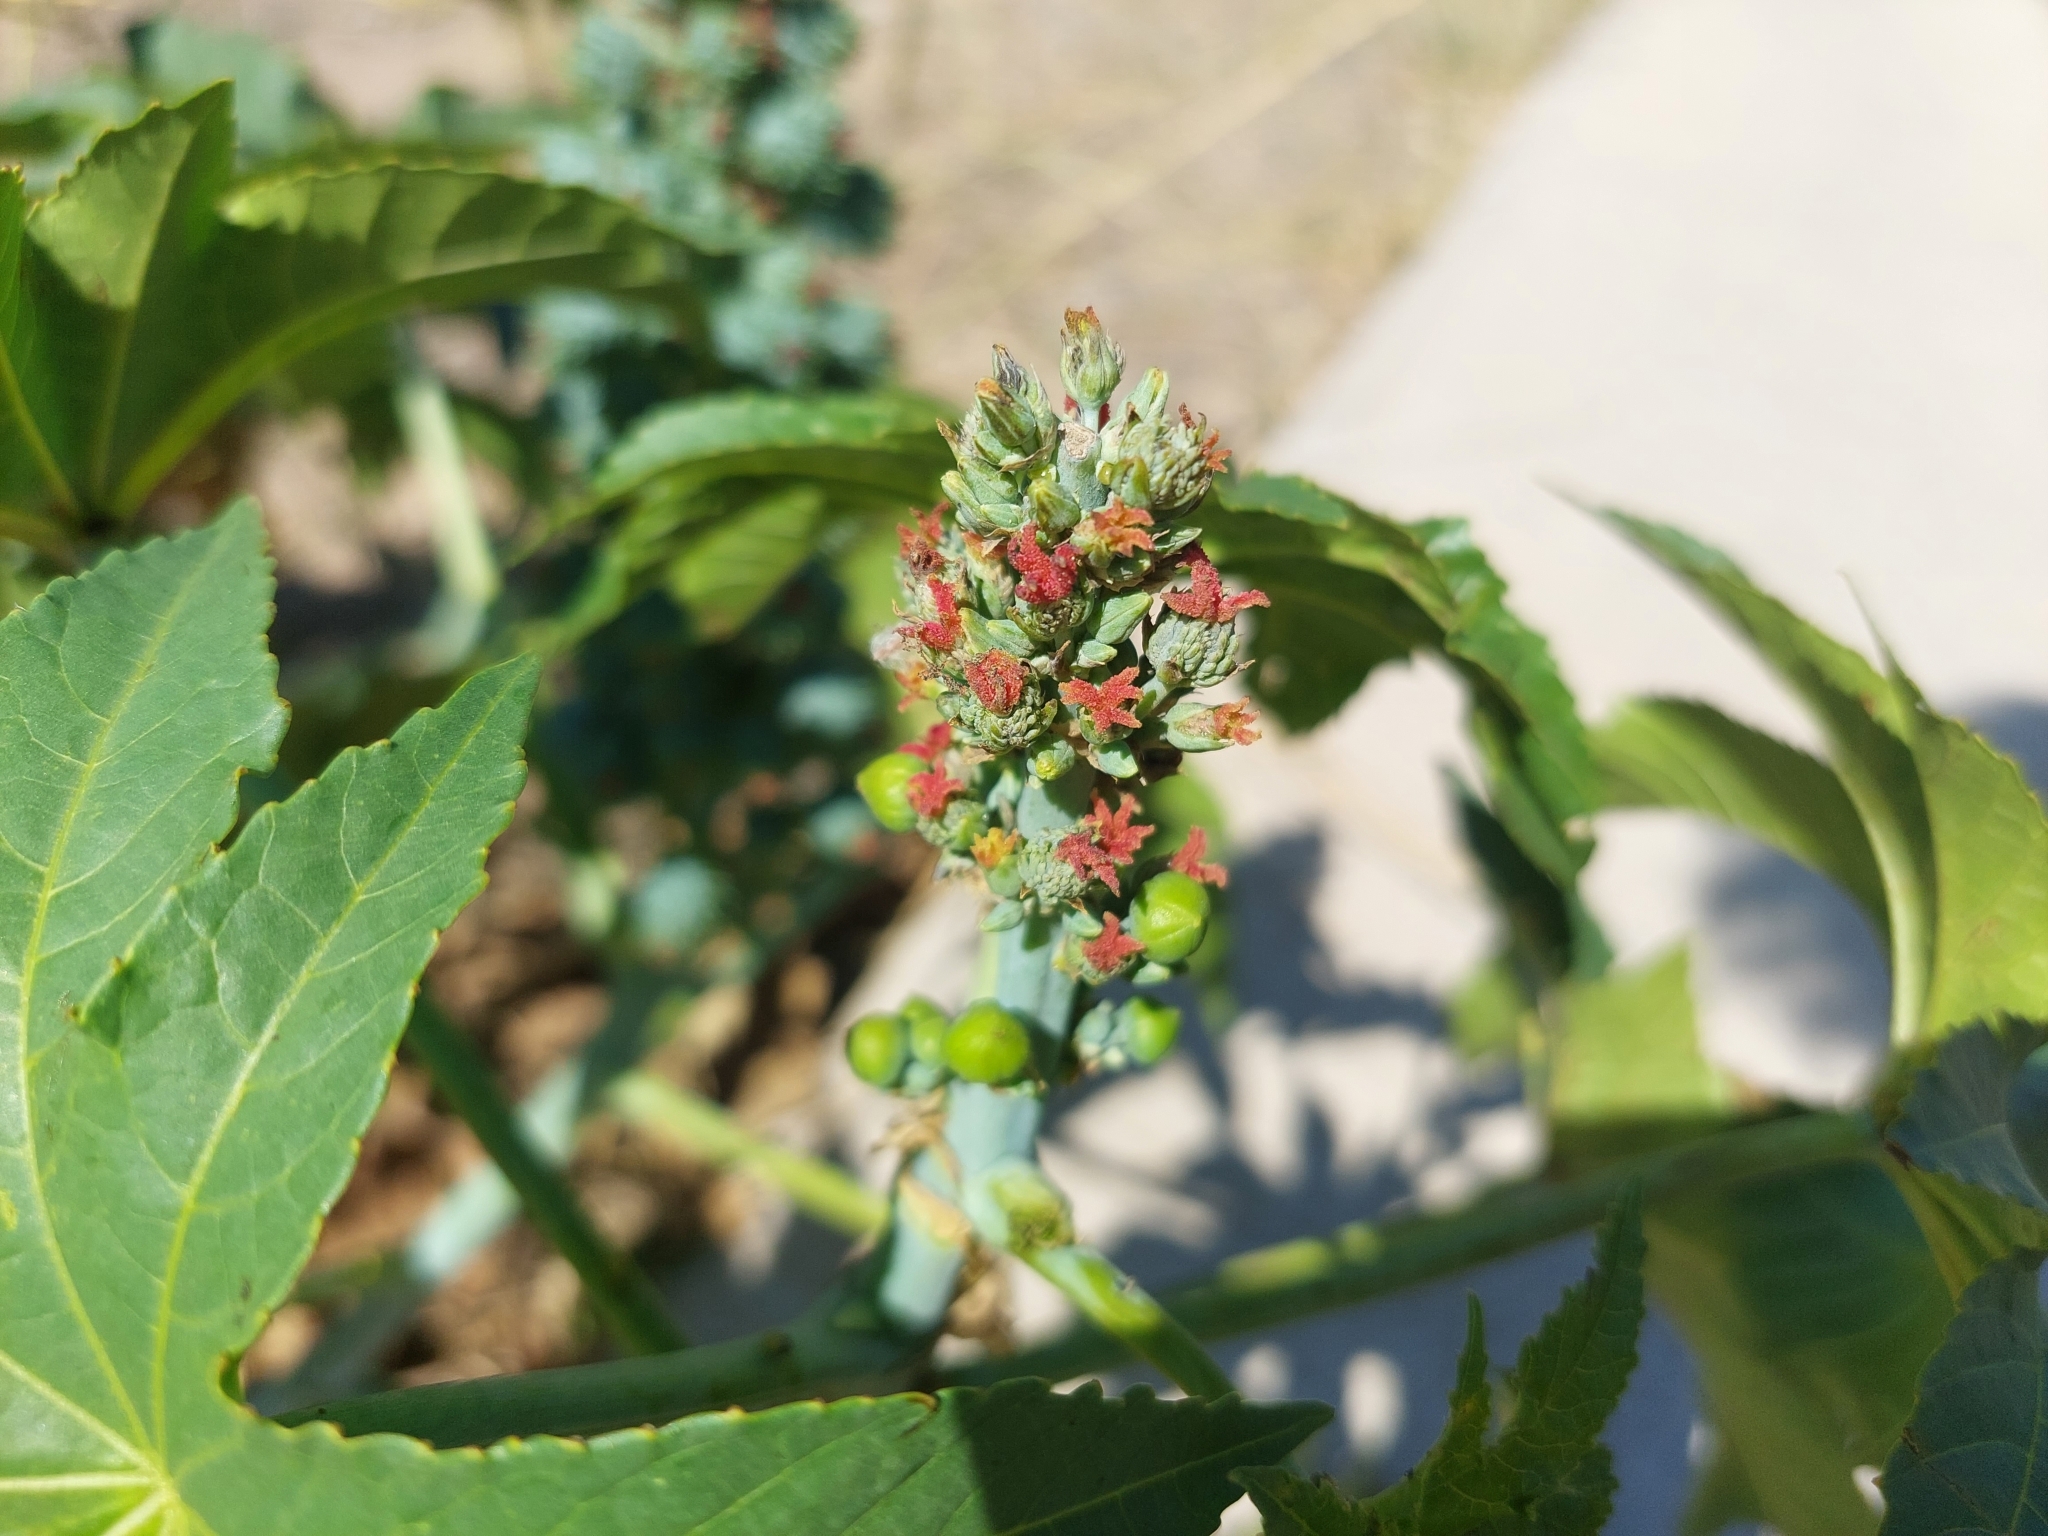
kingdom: Plantae
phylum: Tracheophyta
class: Magnoliopsida
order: Malpighiales
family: Euphorbiaceae
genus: Ricinus
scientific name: Ricinus communis
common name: Castor-oil-plant
